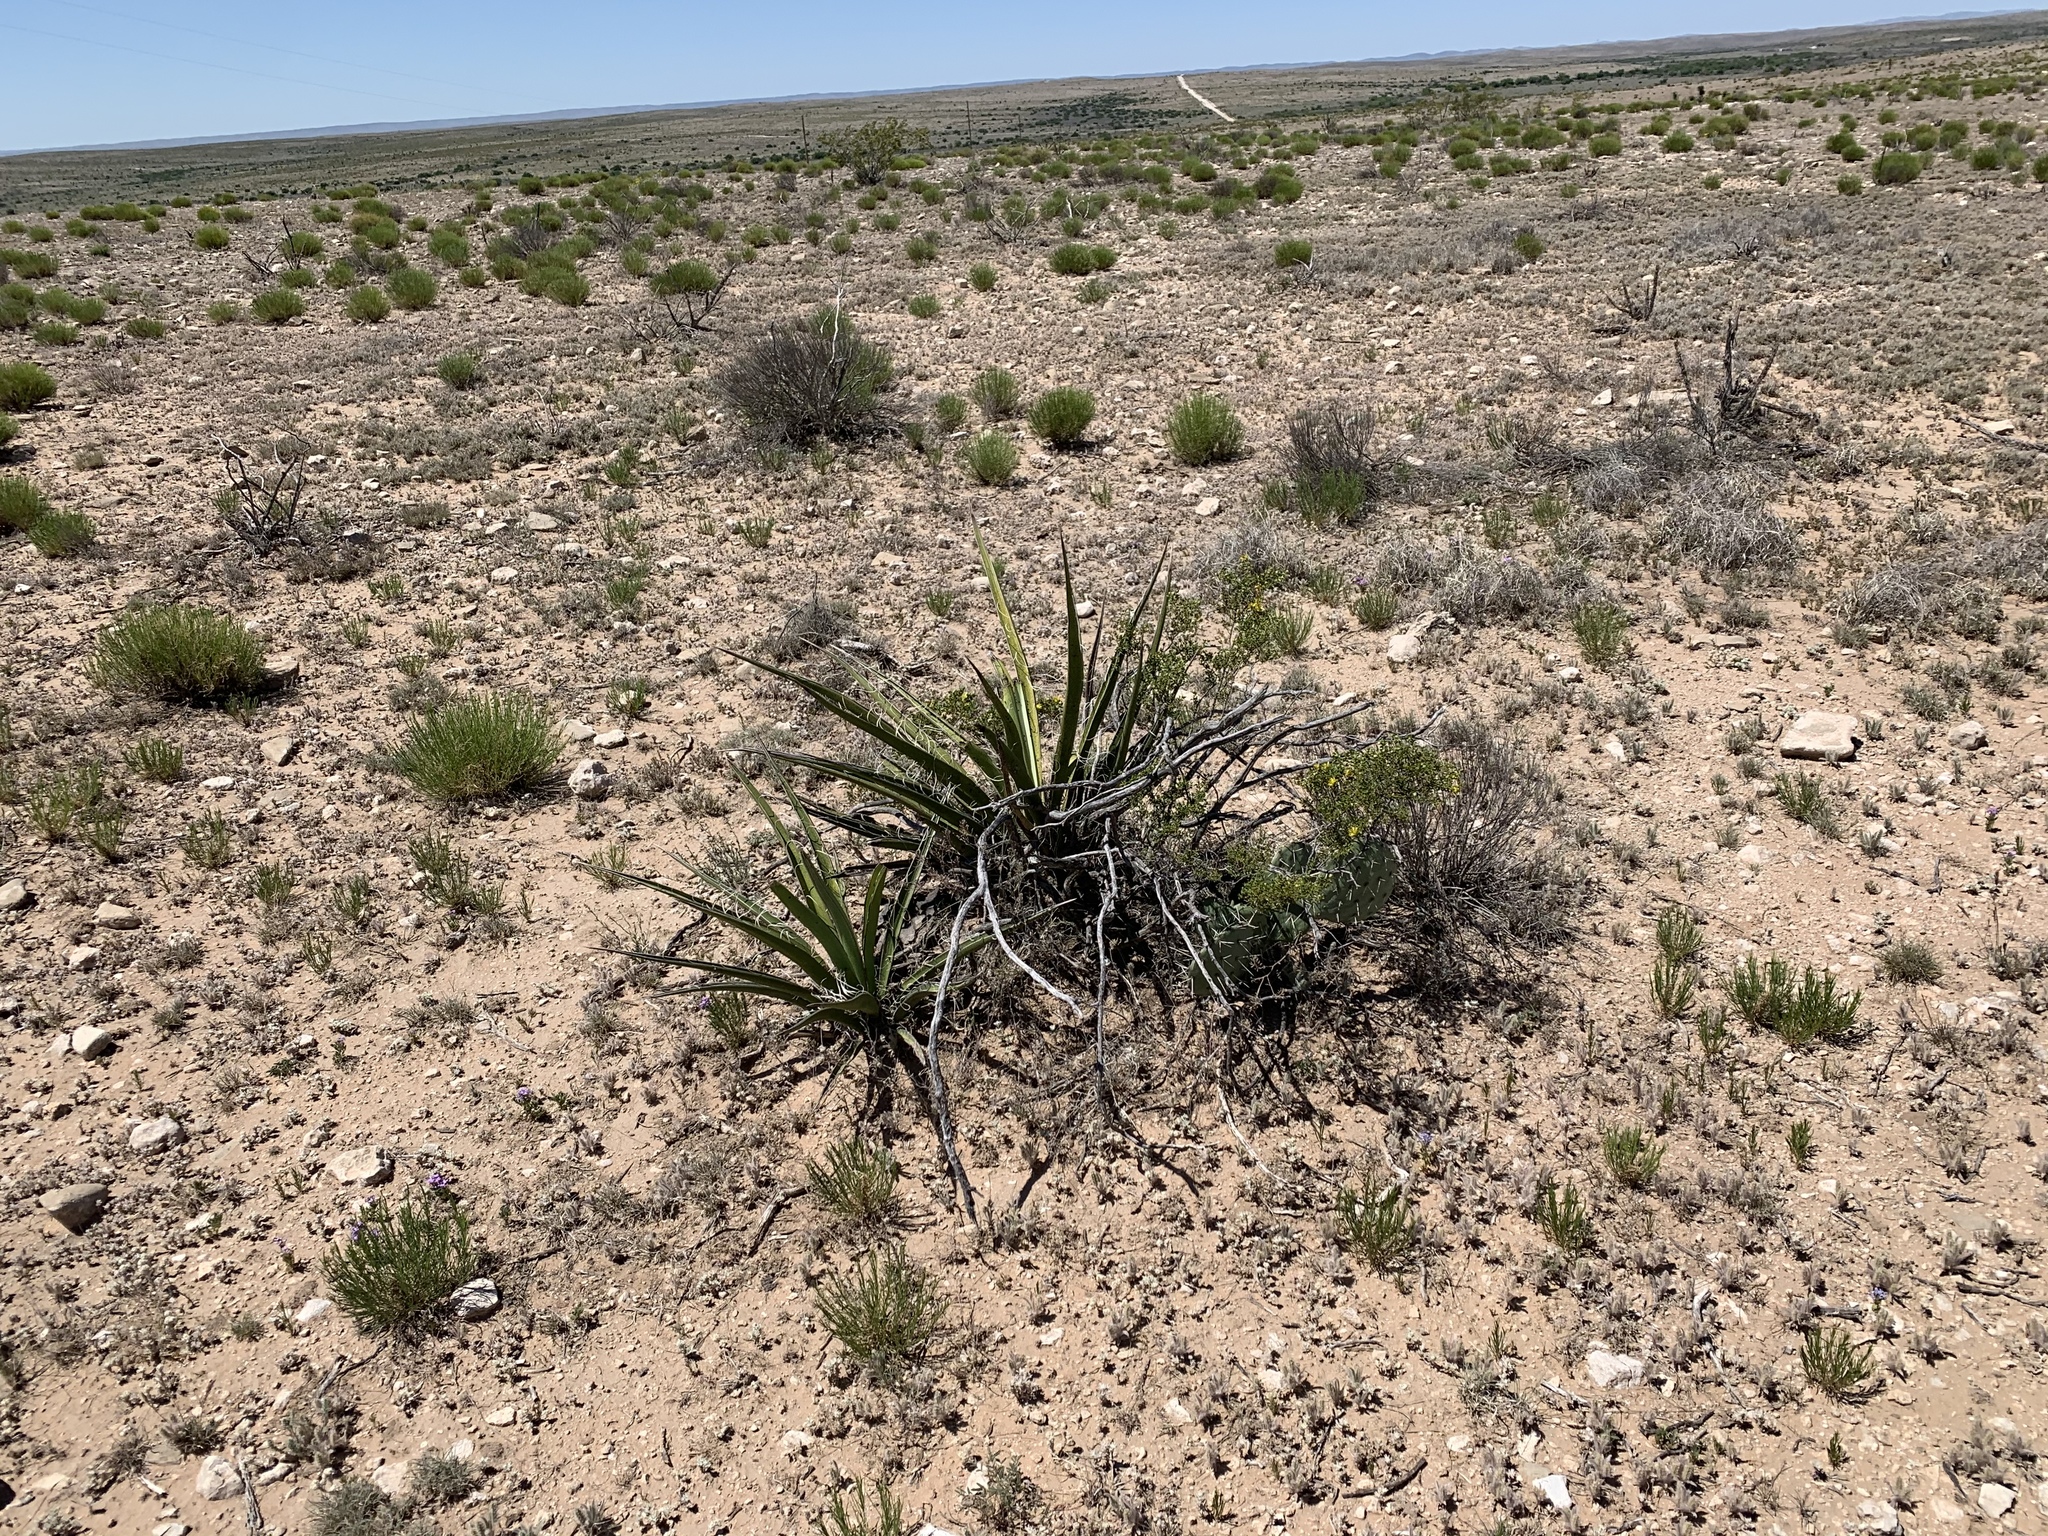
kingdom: Plantae
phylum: Tracheophyta
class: Liliopsida
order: Asparagales
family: Asparagaceae
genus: Yucca
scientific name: Yucca baccata
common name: Banana yucca
